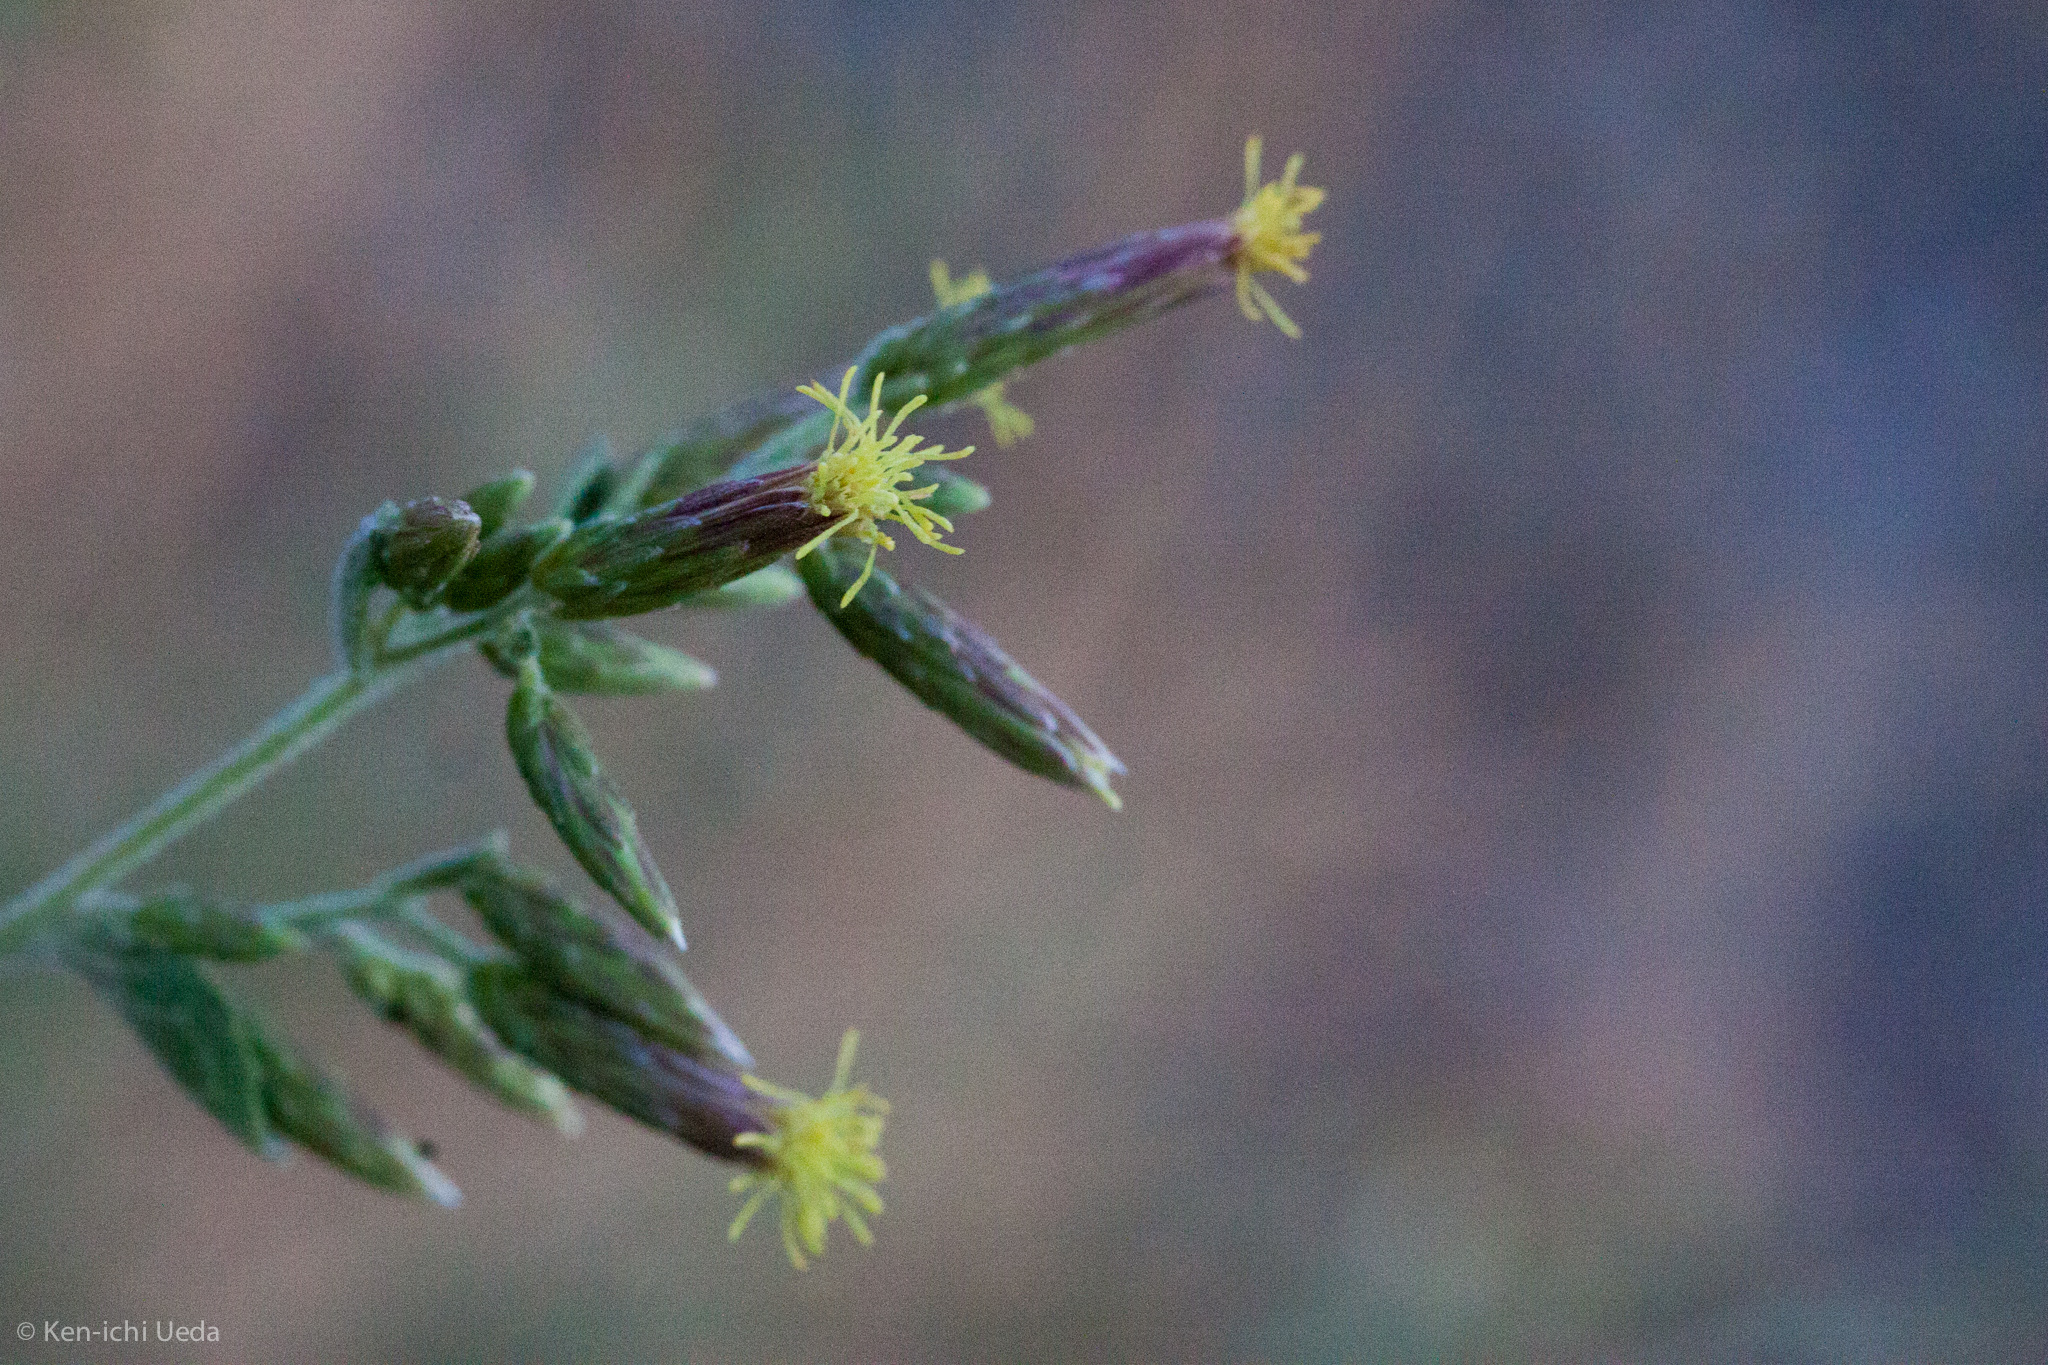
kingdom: Plantae
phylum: Tracheophyta
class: Magnoliopsida
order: Asterales
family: Asteraceae
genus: Brickellia
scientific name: Brickellia californica
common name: California brickellbush
